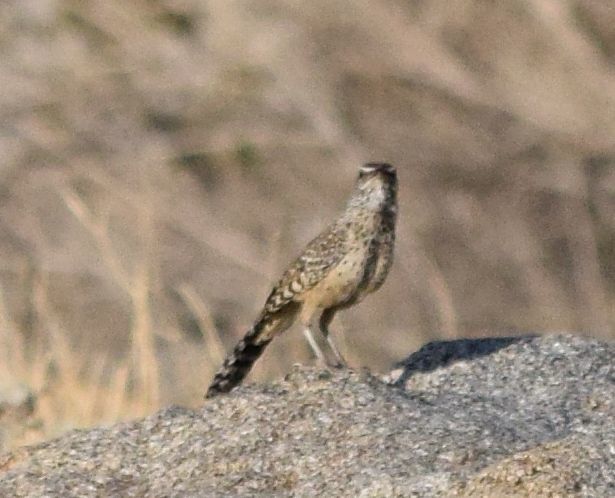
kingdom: Animalia
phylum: Chordata
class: Aves
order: Passeriformes
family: Troglodytidae
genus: Campylorhynchus
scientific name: Campylorhynchus brunneicapillus
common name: Cactus wren
